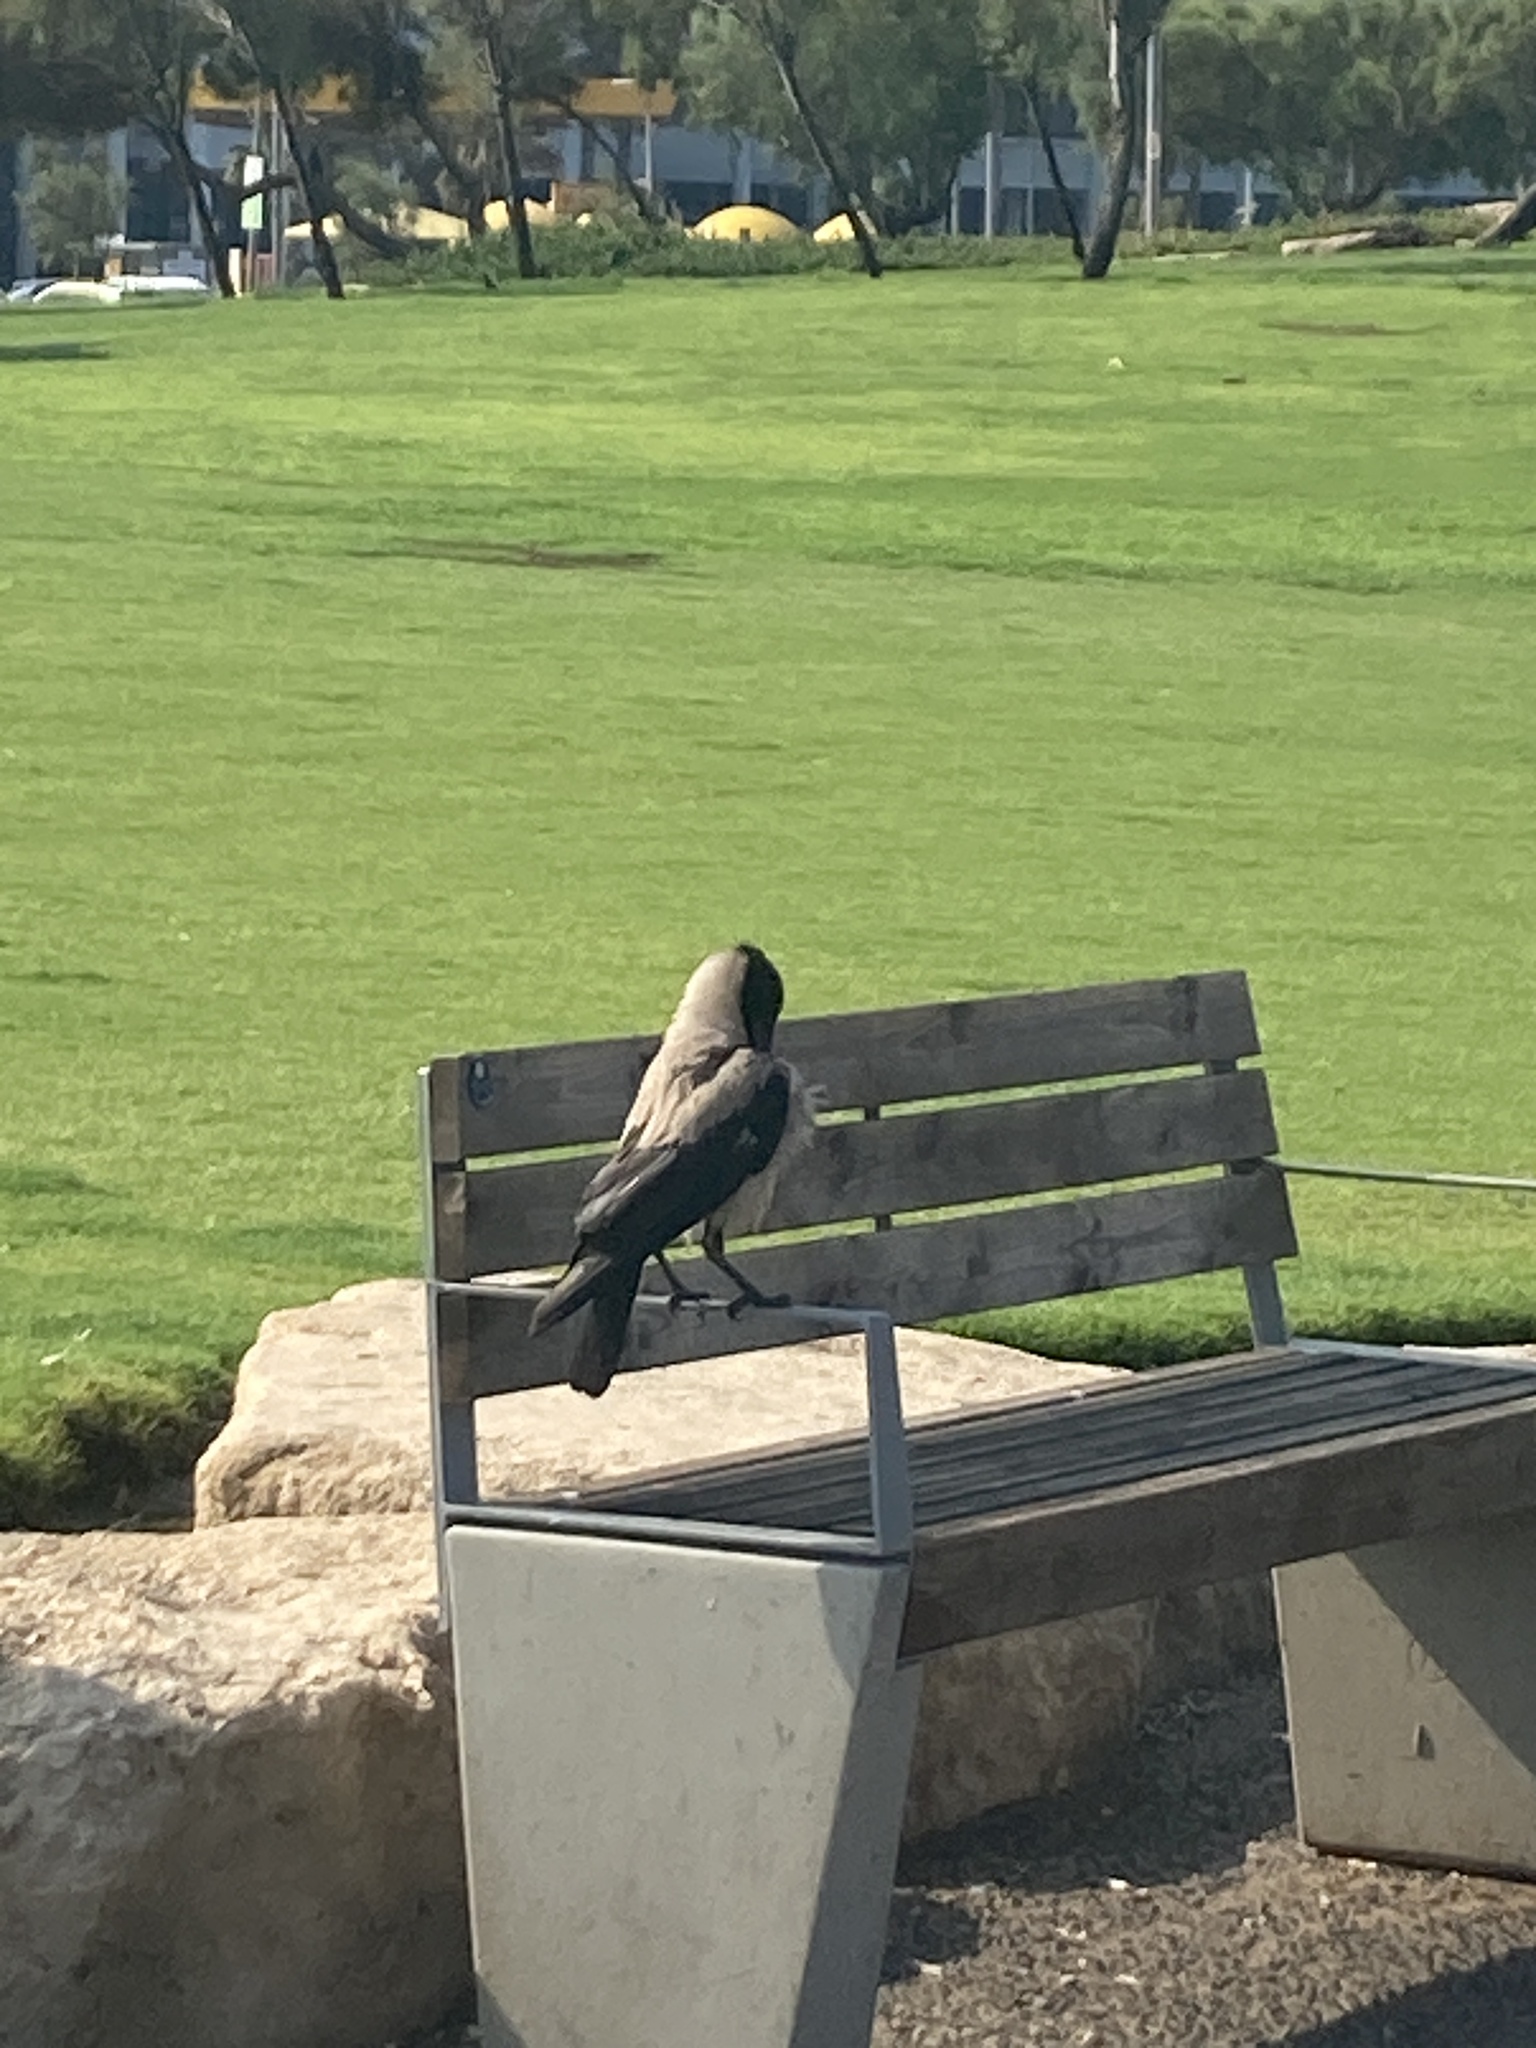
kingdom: Animalia
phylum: Chordata
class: Aves
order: Passeriformes
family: Corvidae
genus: Corvus
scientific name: Corvus cornix
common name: Hooded crow
